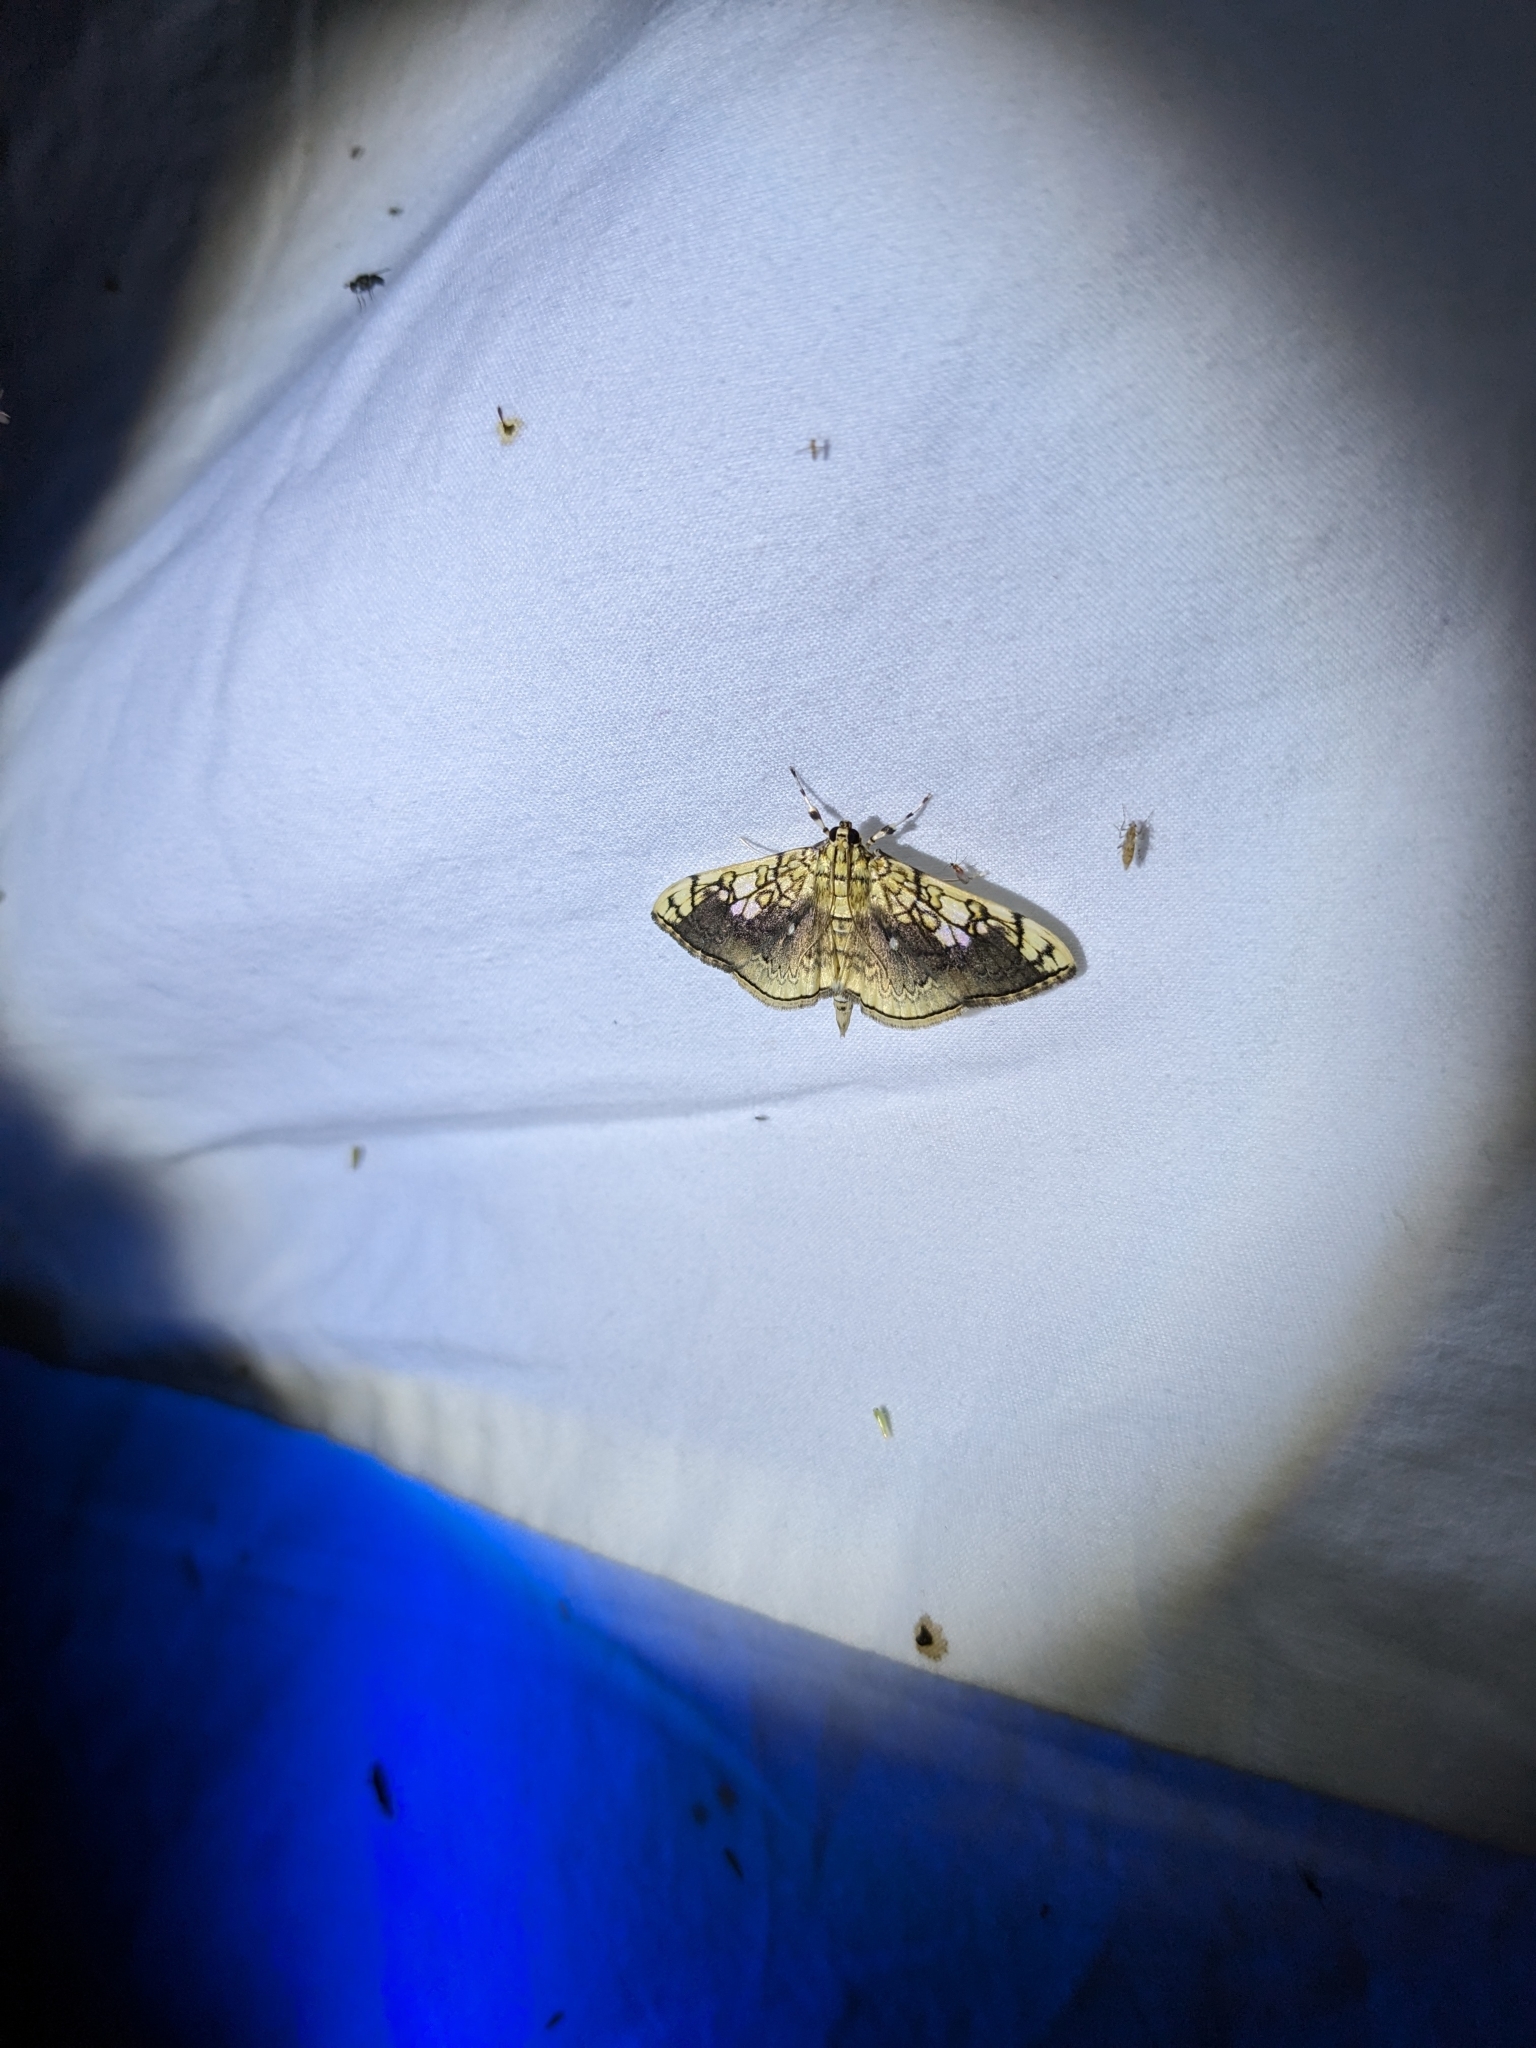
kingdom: Animalia
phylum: Arthropoda
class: Insecta
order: Lepidoptera
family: Crambidae
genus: Pantographa
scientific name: Pantographa limata
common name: Basswood leafroller moth
